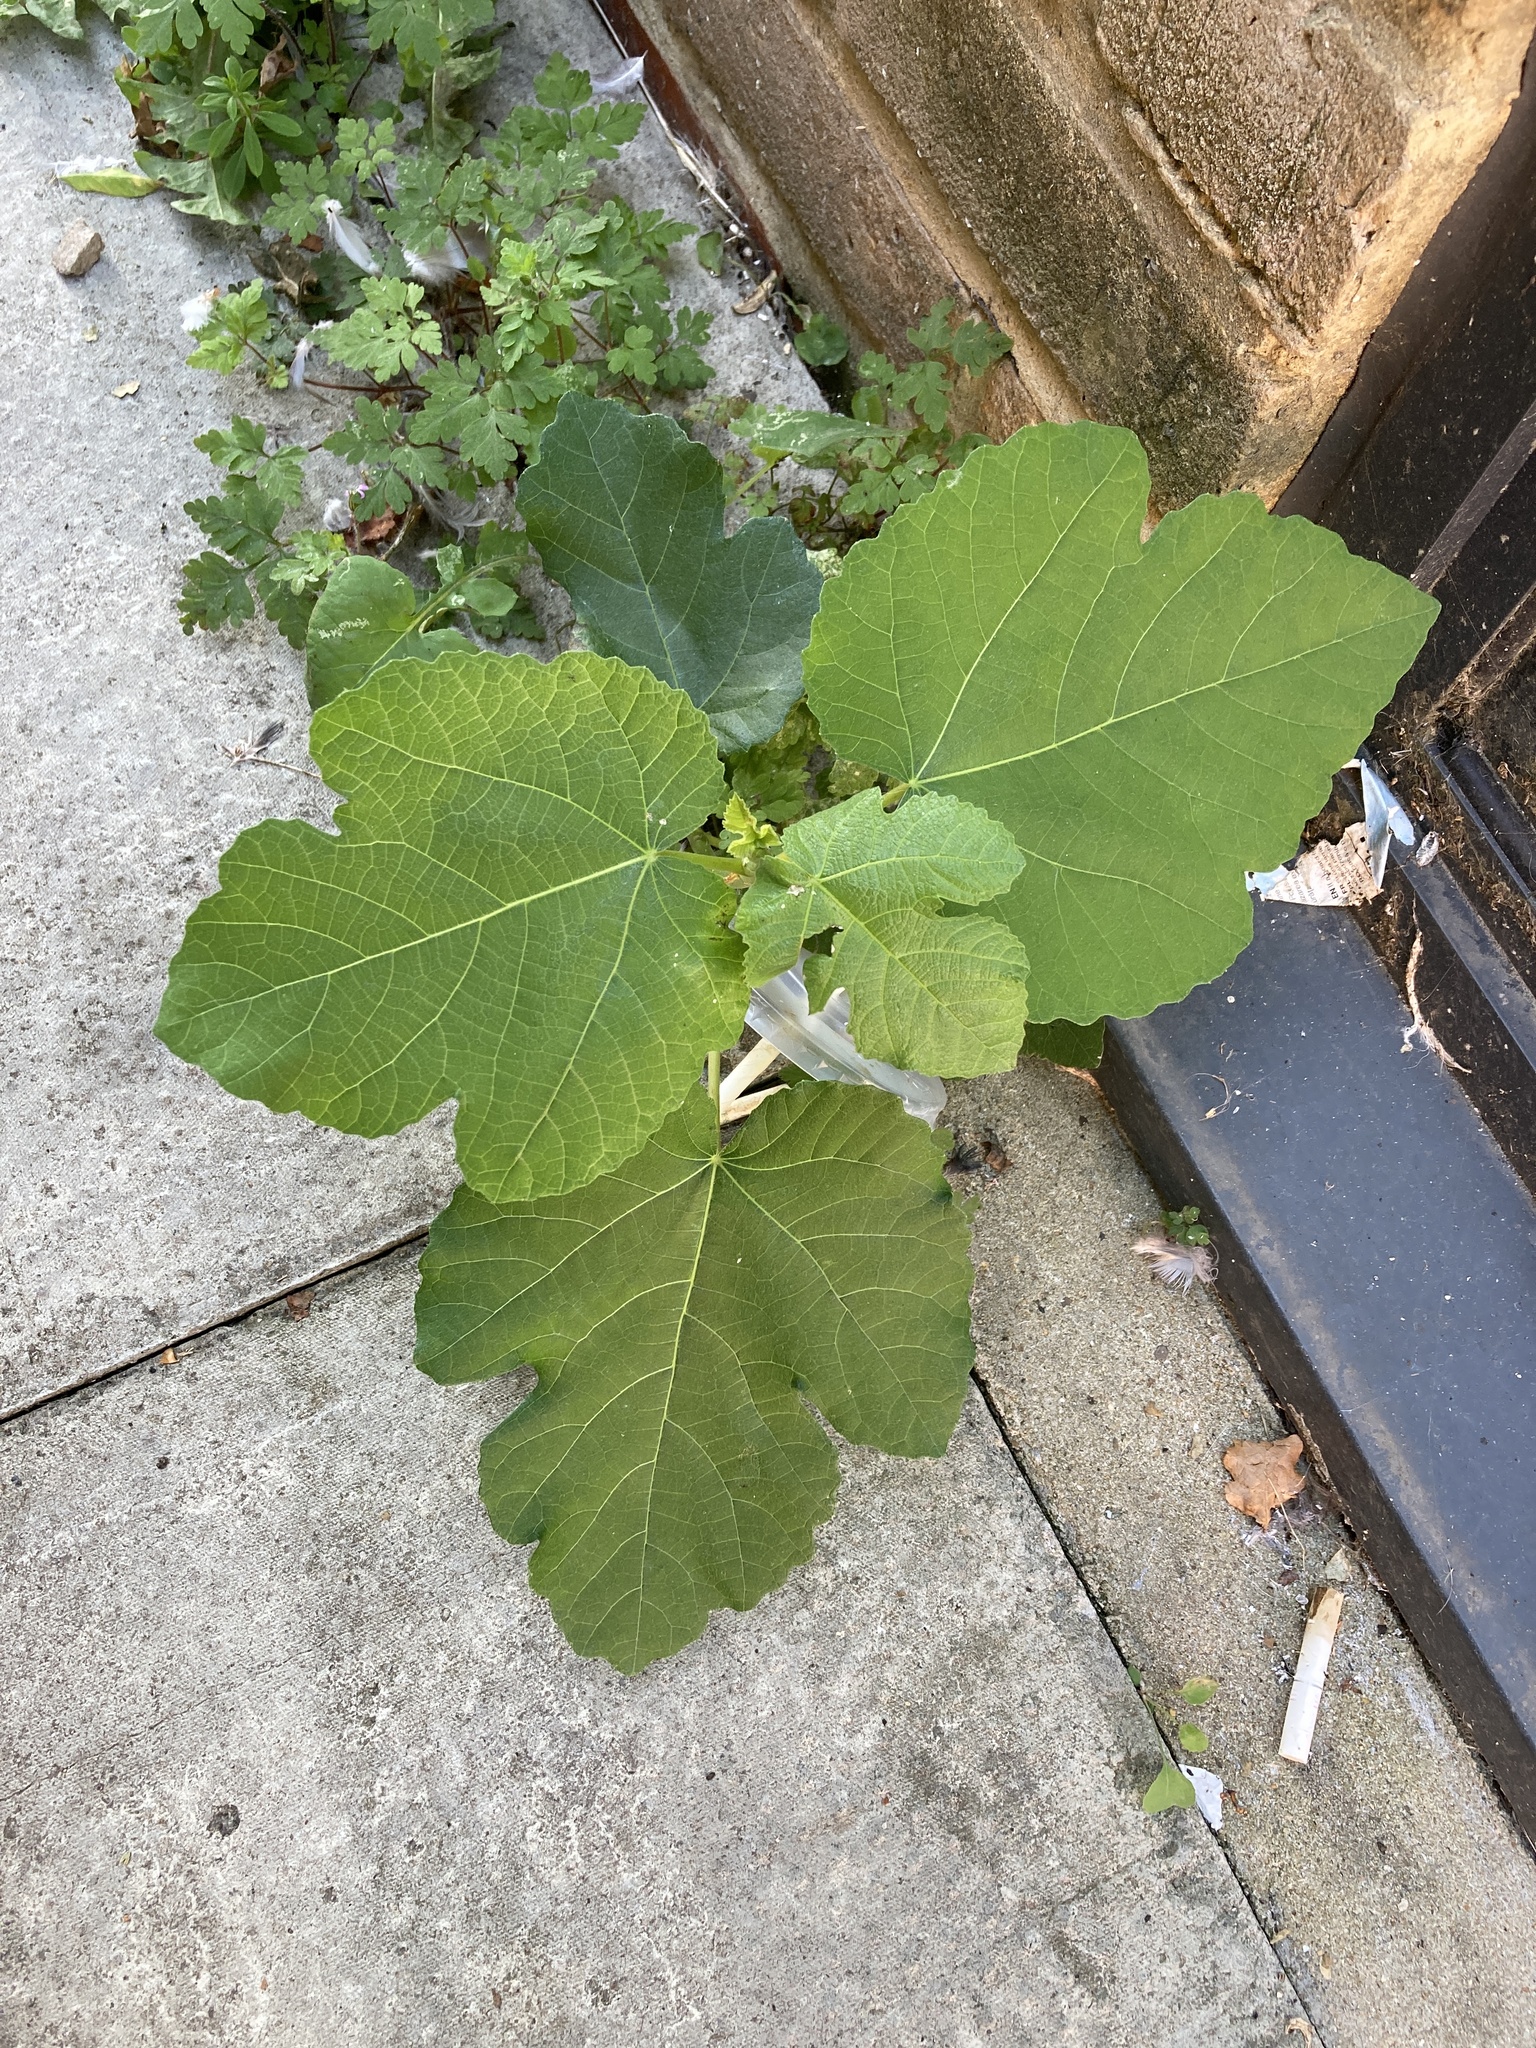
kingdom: Plantae
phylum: Tracheophyta
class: Magnoliopsida
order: Rosales
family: Moraceae
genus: Ficus
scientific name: Ficus carica
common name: Fig
